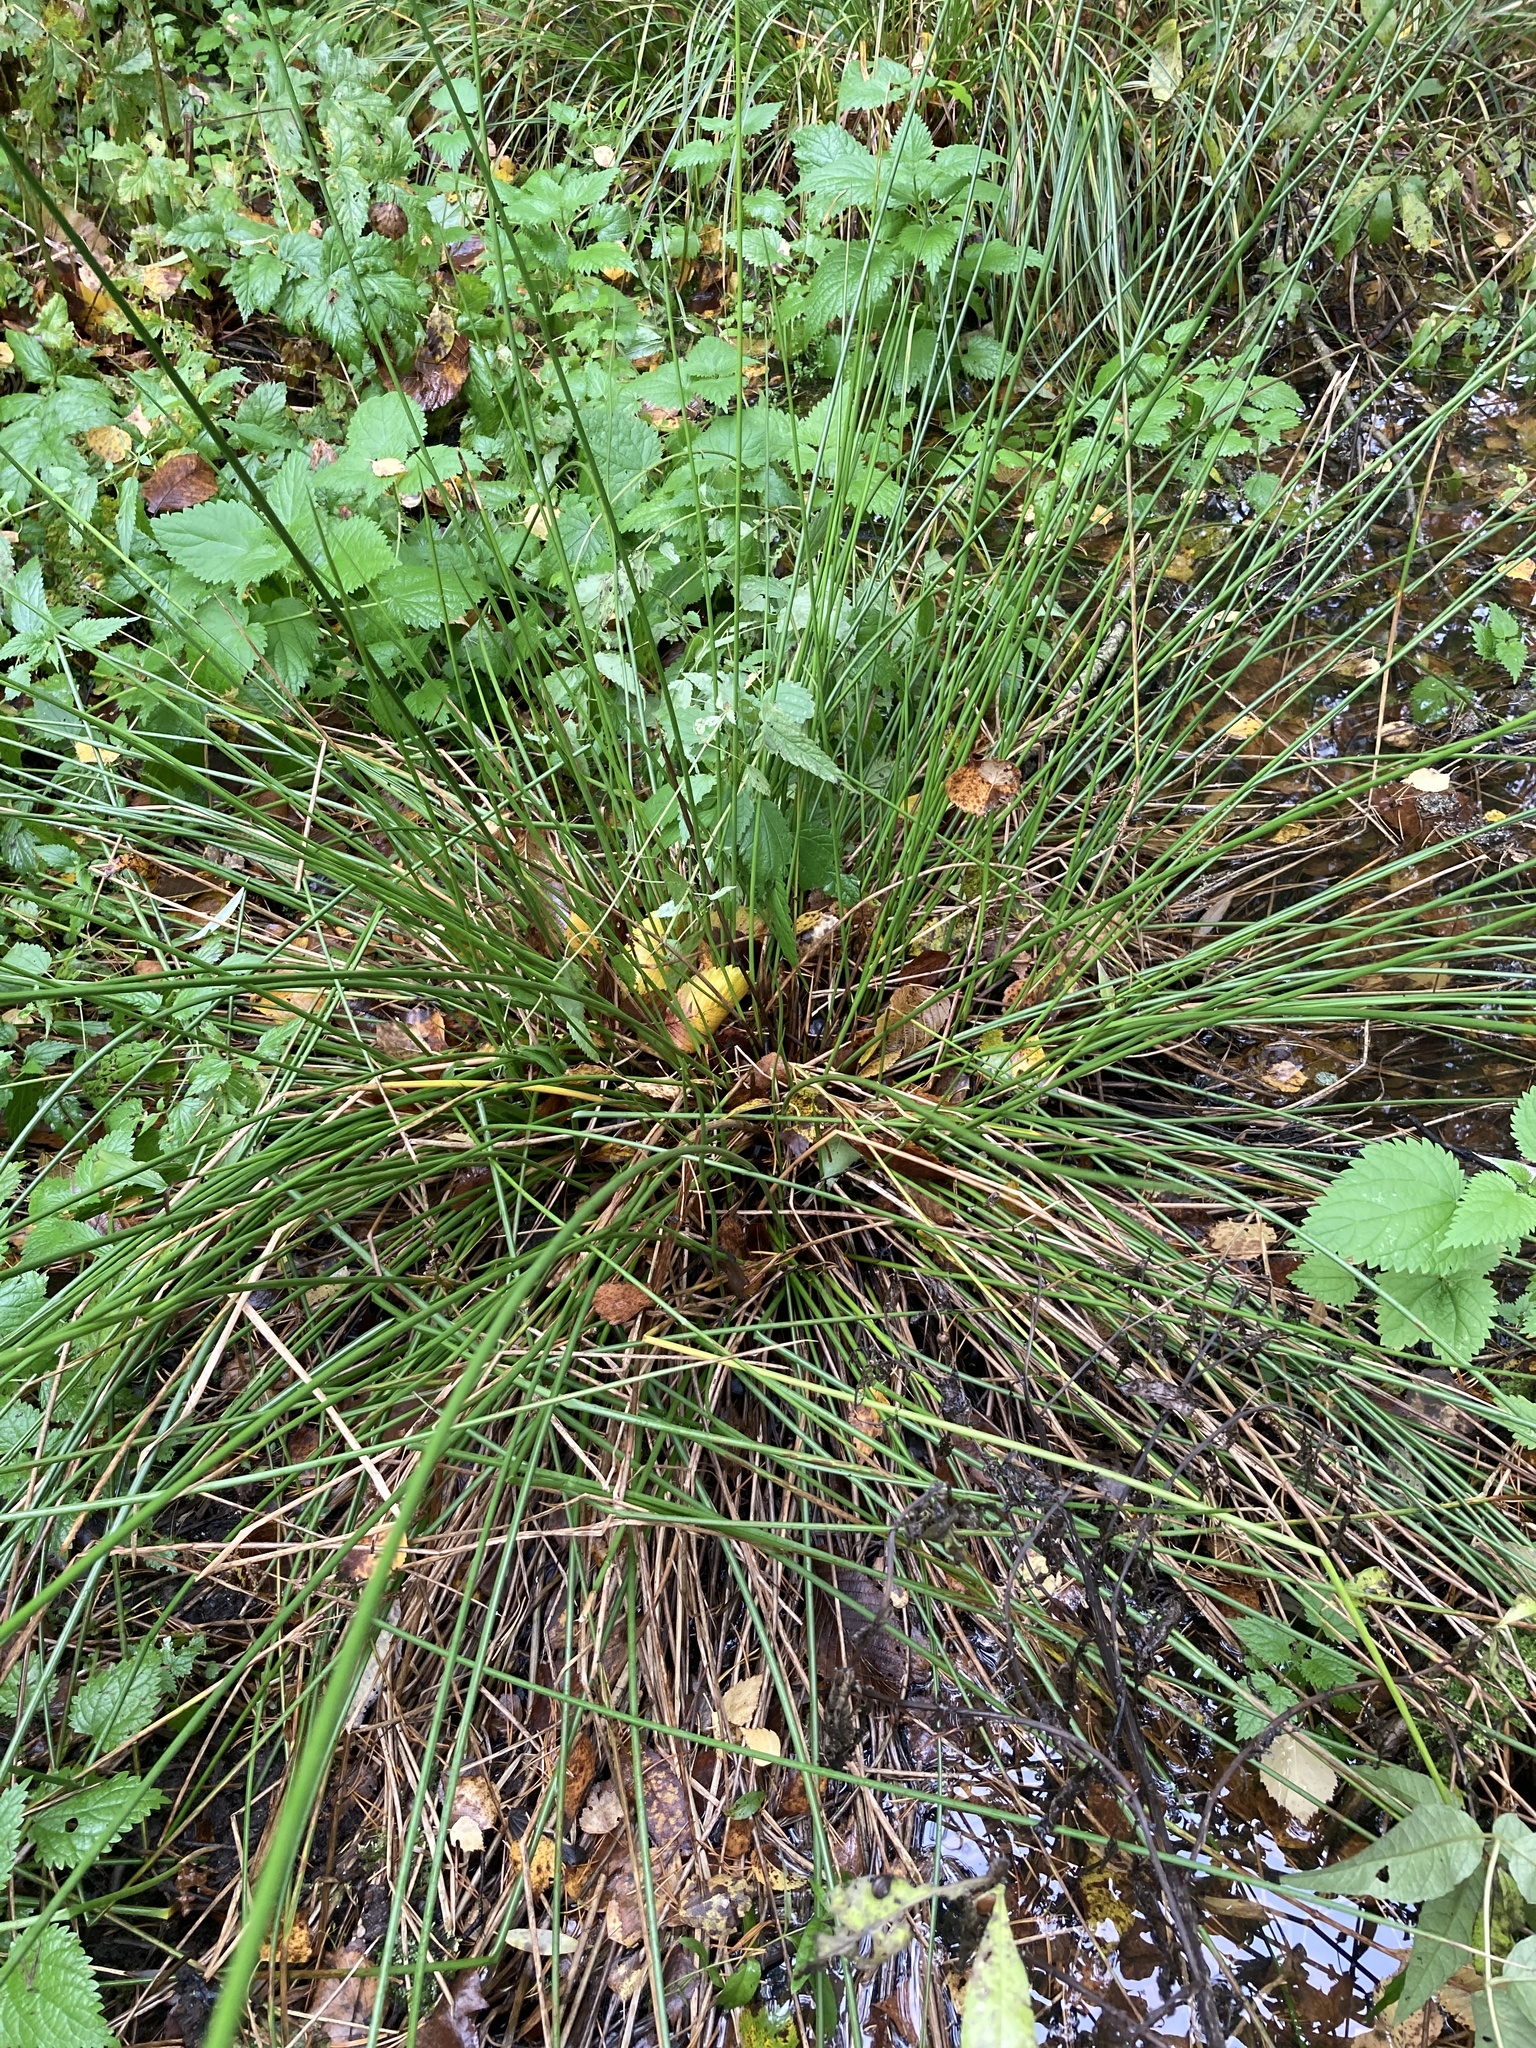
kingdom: Plantae
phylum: Tracheophyta
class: Liliopsida
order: Poales
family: Juncaceae
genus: Juncus
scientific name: Juncus effusus
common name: Soft rush
